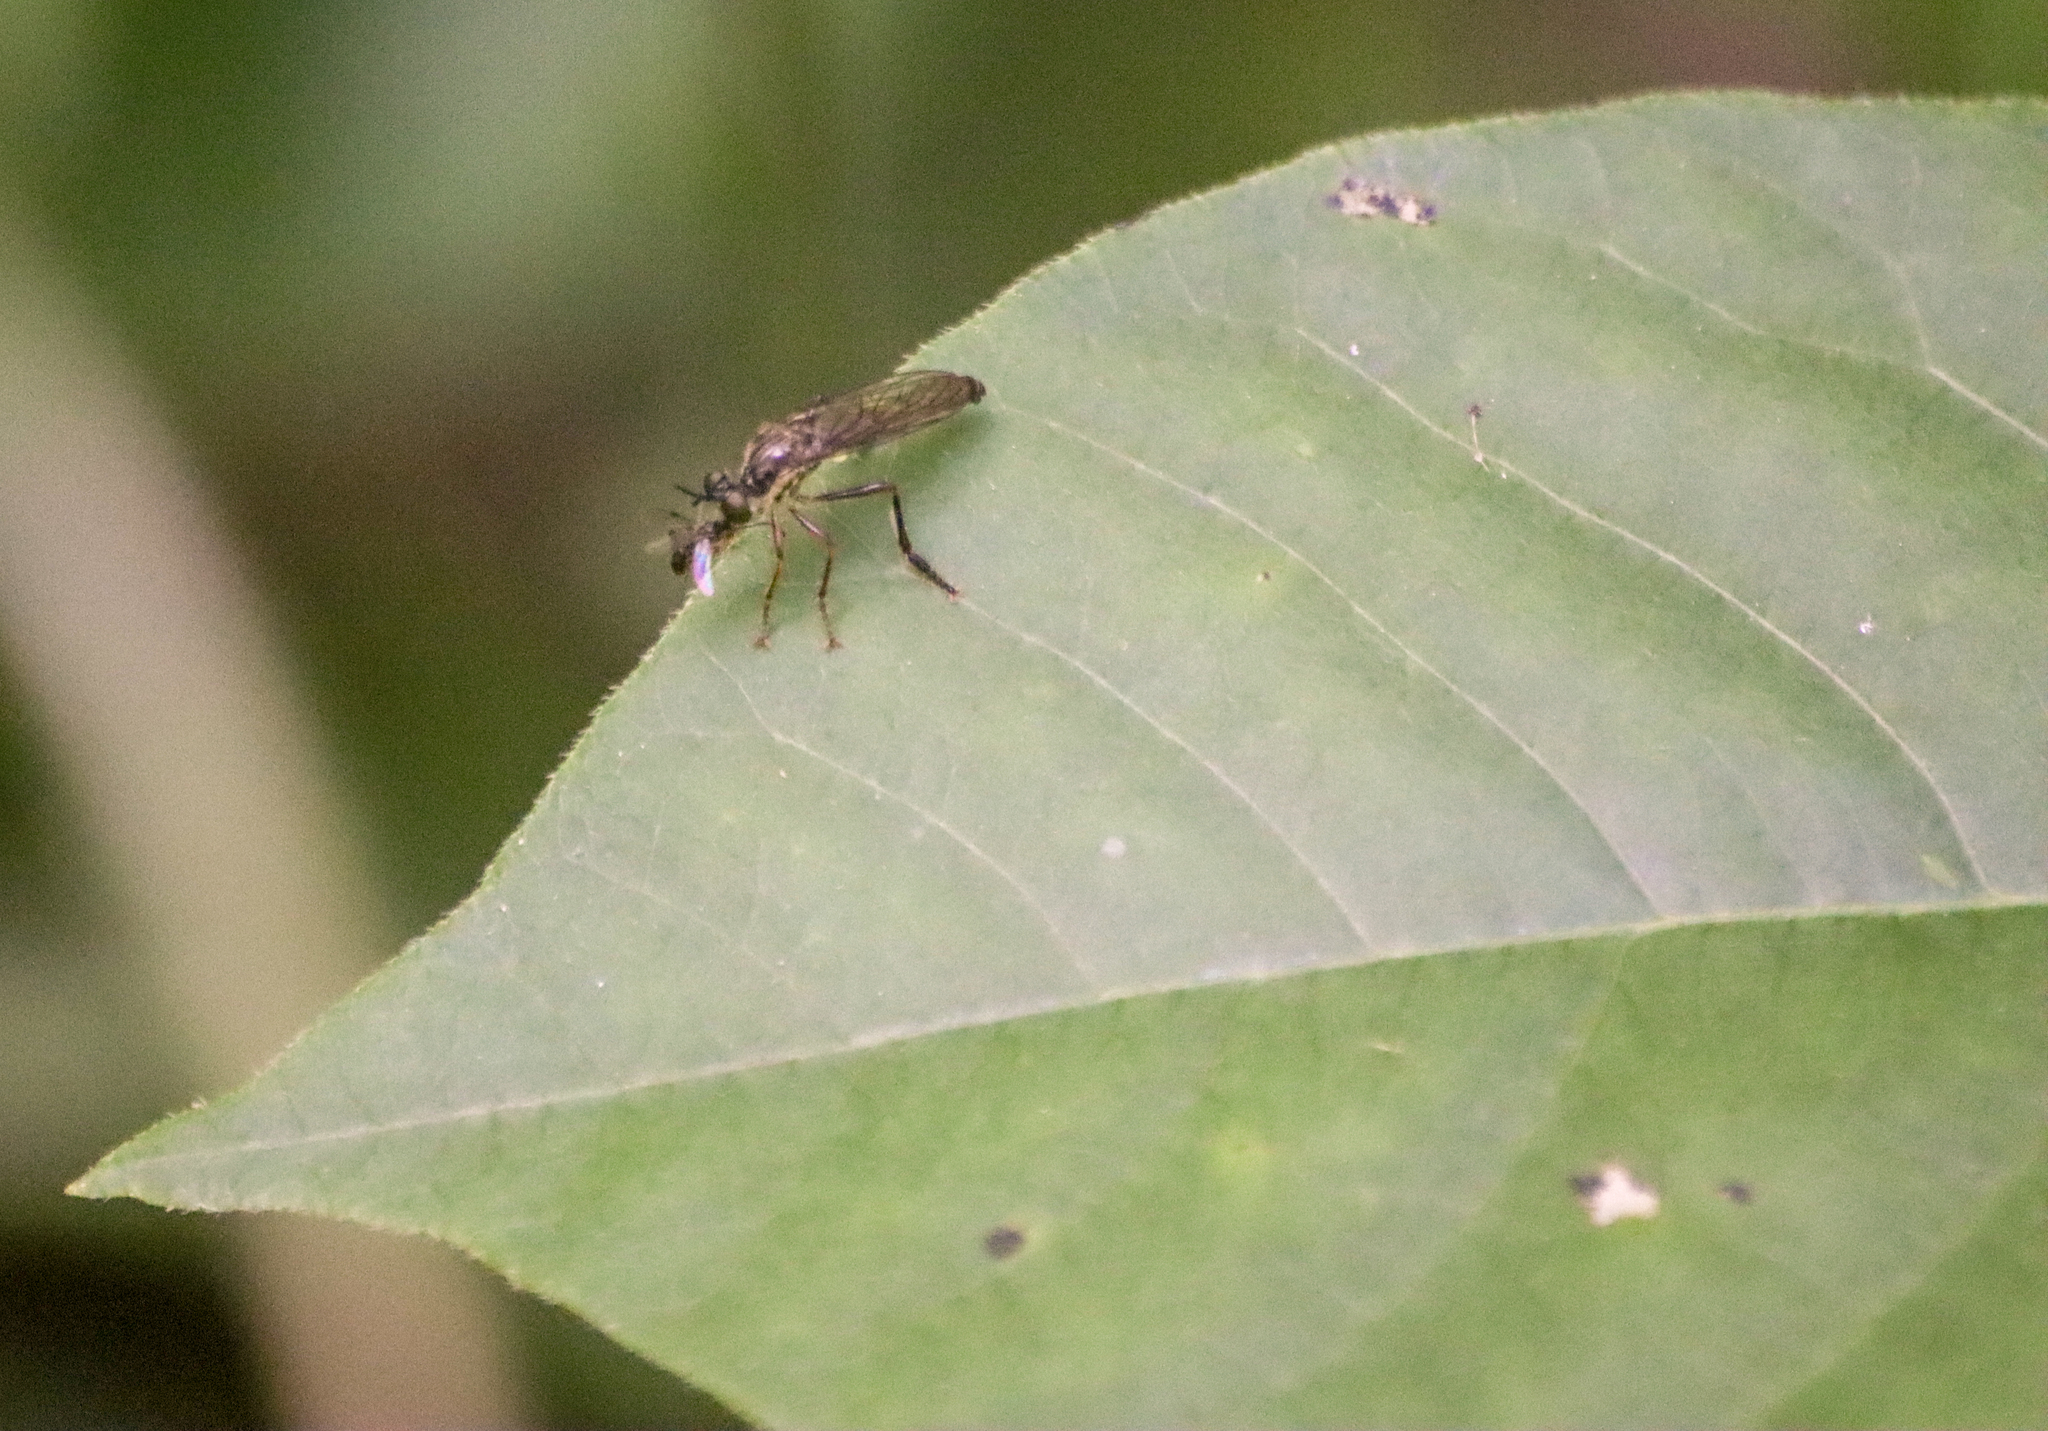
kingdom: Animalia
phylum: Arthropoda
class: Insecta
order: Diptera
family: Asilidae
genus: Dioctria
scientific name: Dioctria hyalipennis
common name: Stripe-legged robberfly
